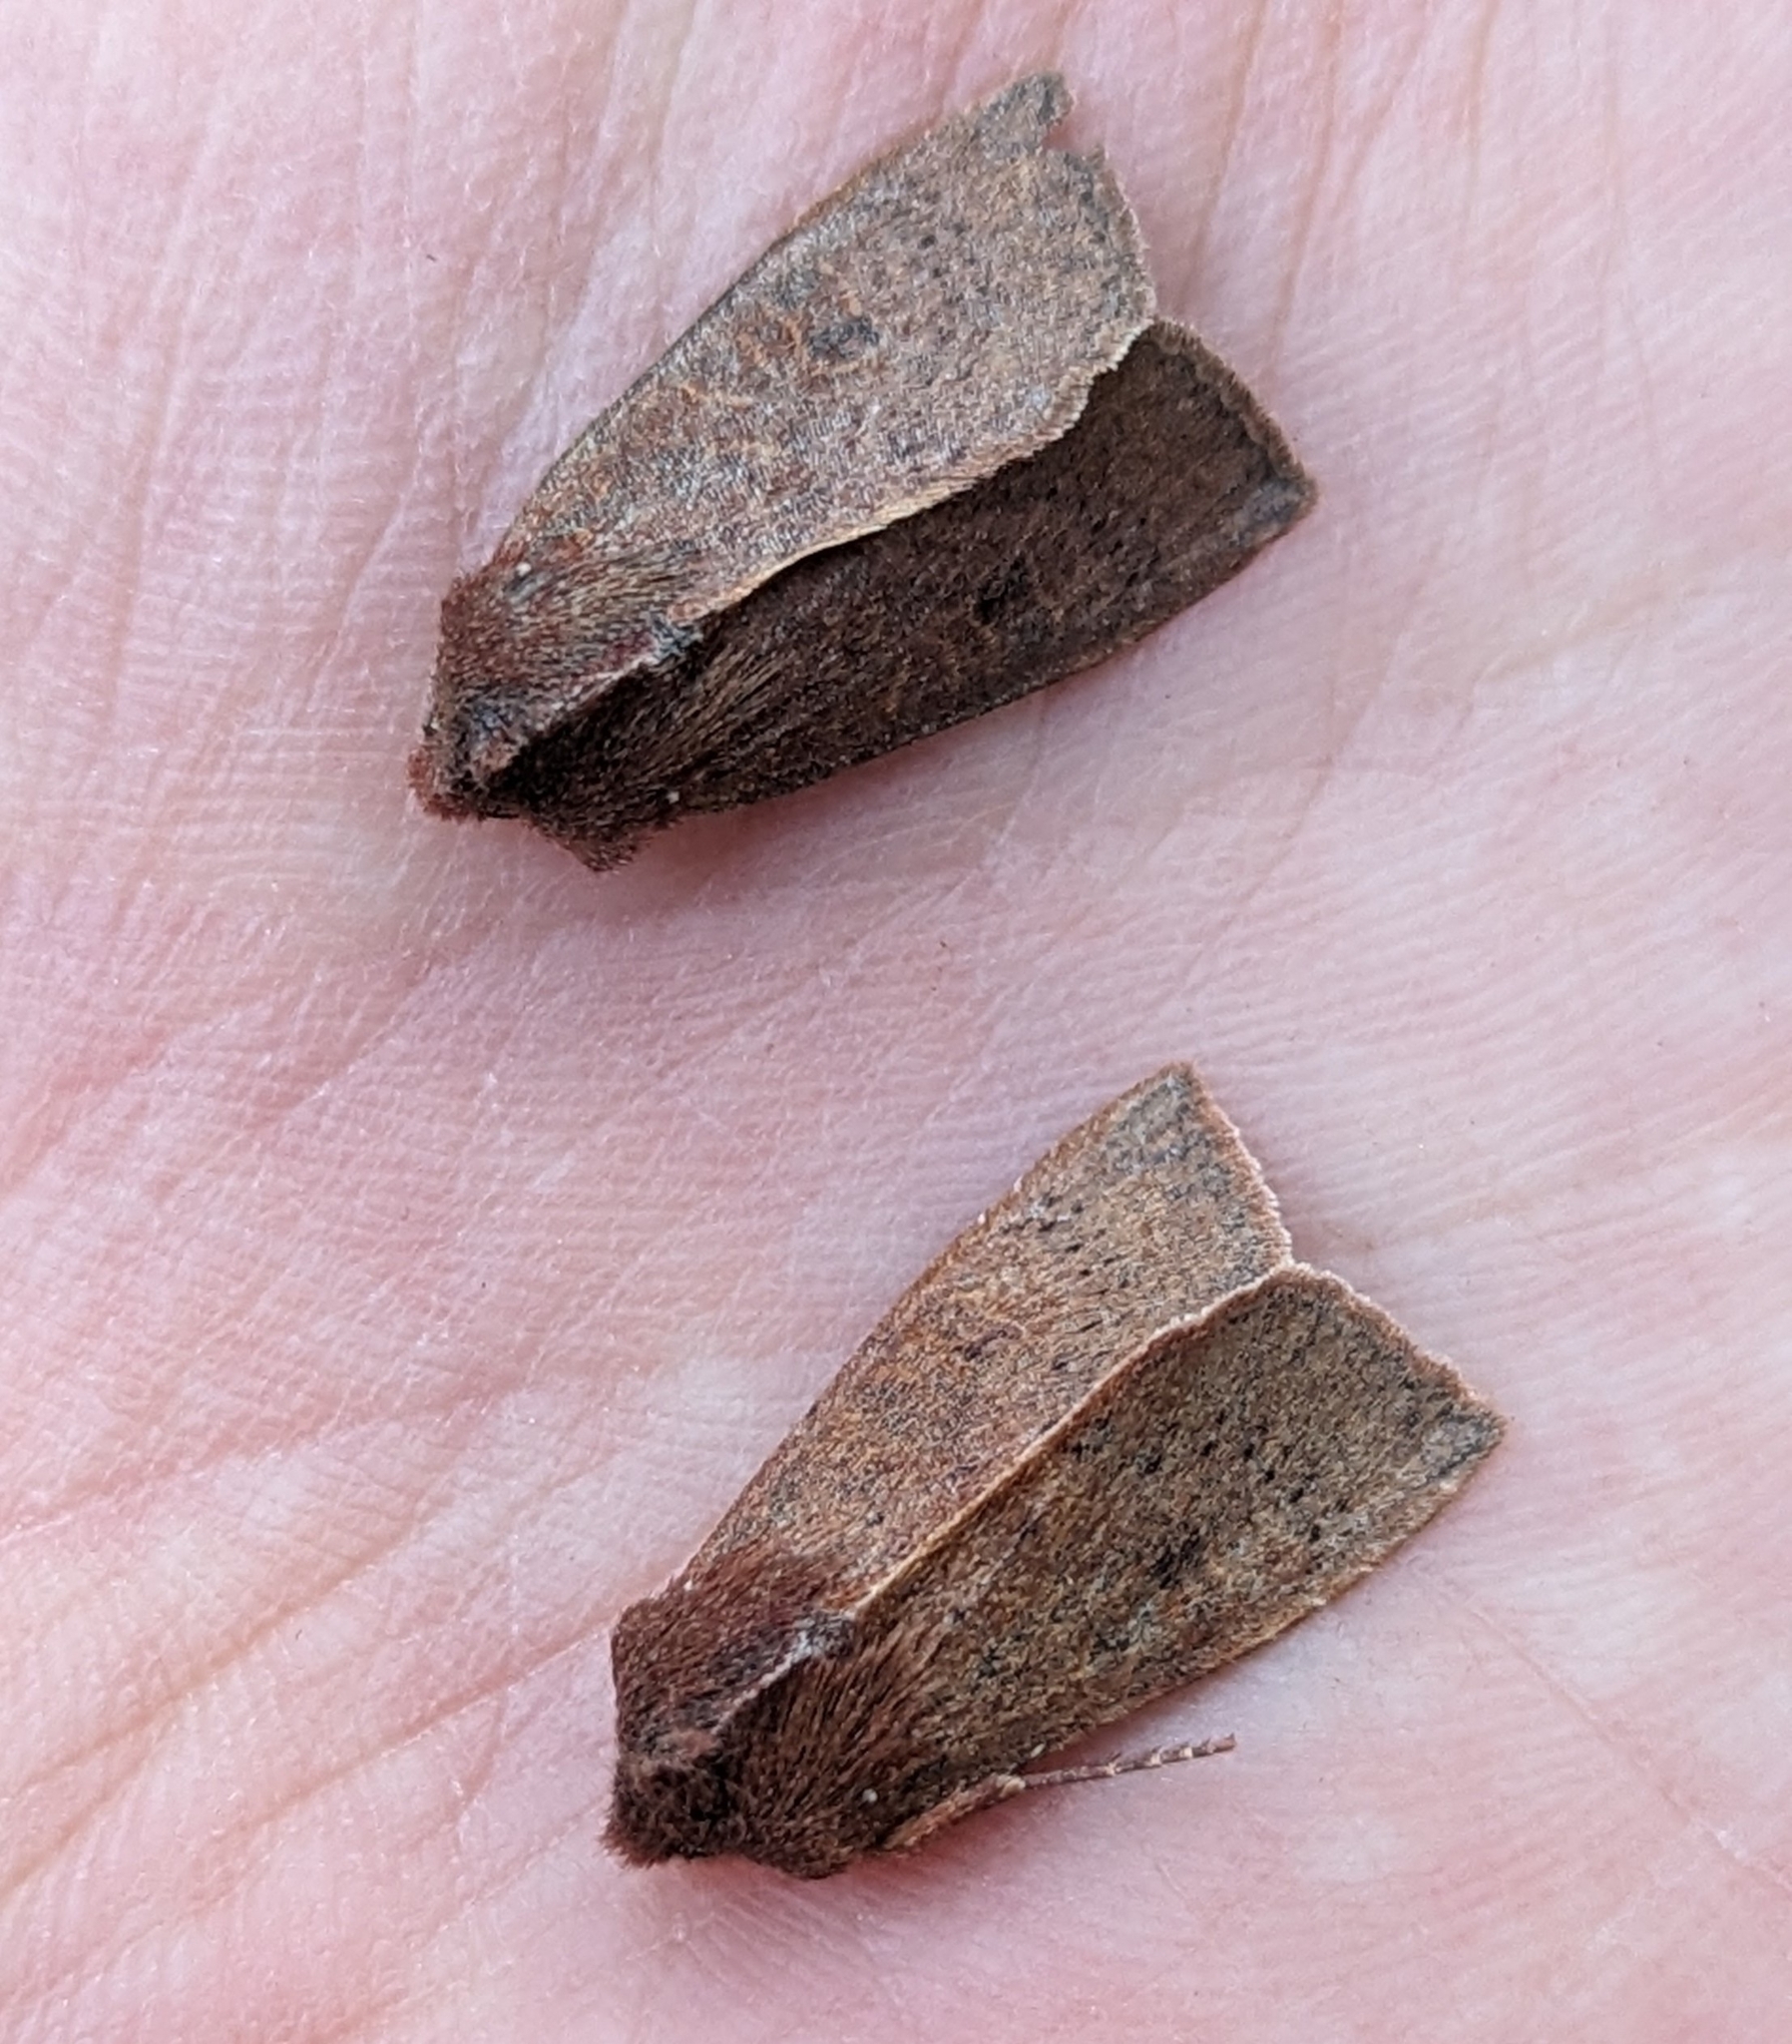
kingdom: Animalia
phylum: Arthropoda
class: Insecta
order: Lepidoptera
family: Noctuidae
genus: Orthosia
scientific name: Orthosia transparens
